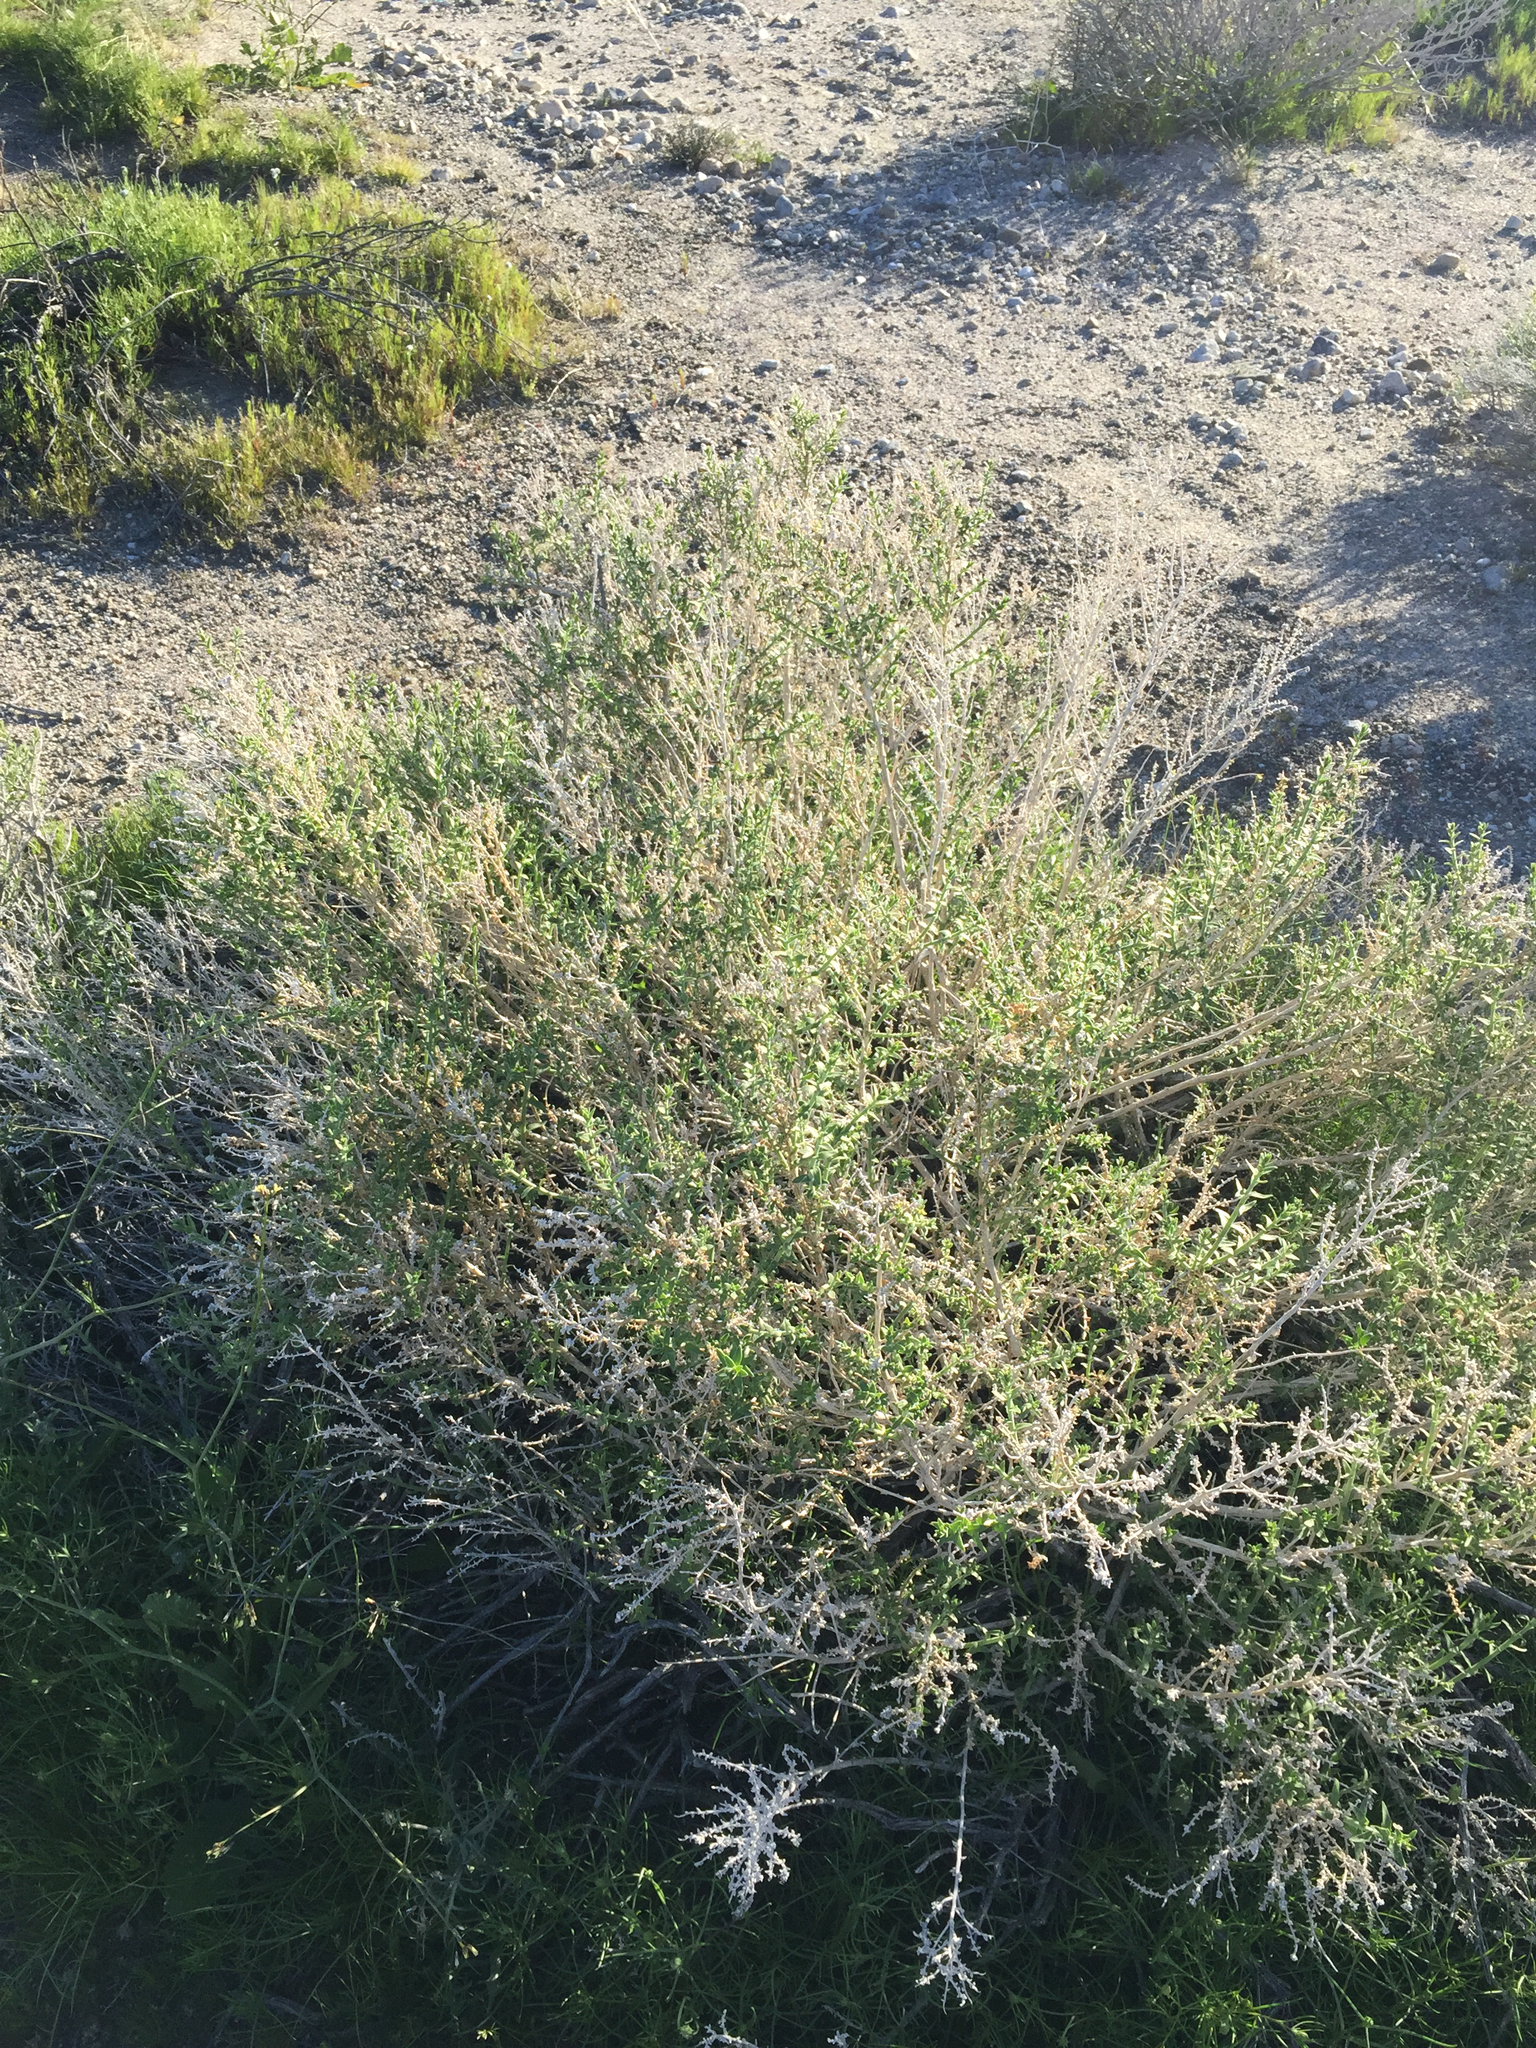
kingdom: Plantae
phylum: Tracheophyta
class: Magnoliopsida
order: Cornales
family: Loasaceae
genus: Petalonyx
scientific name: Petalonyx thurberi
